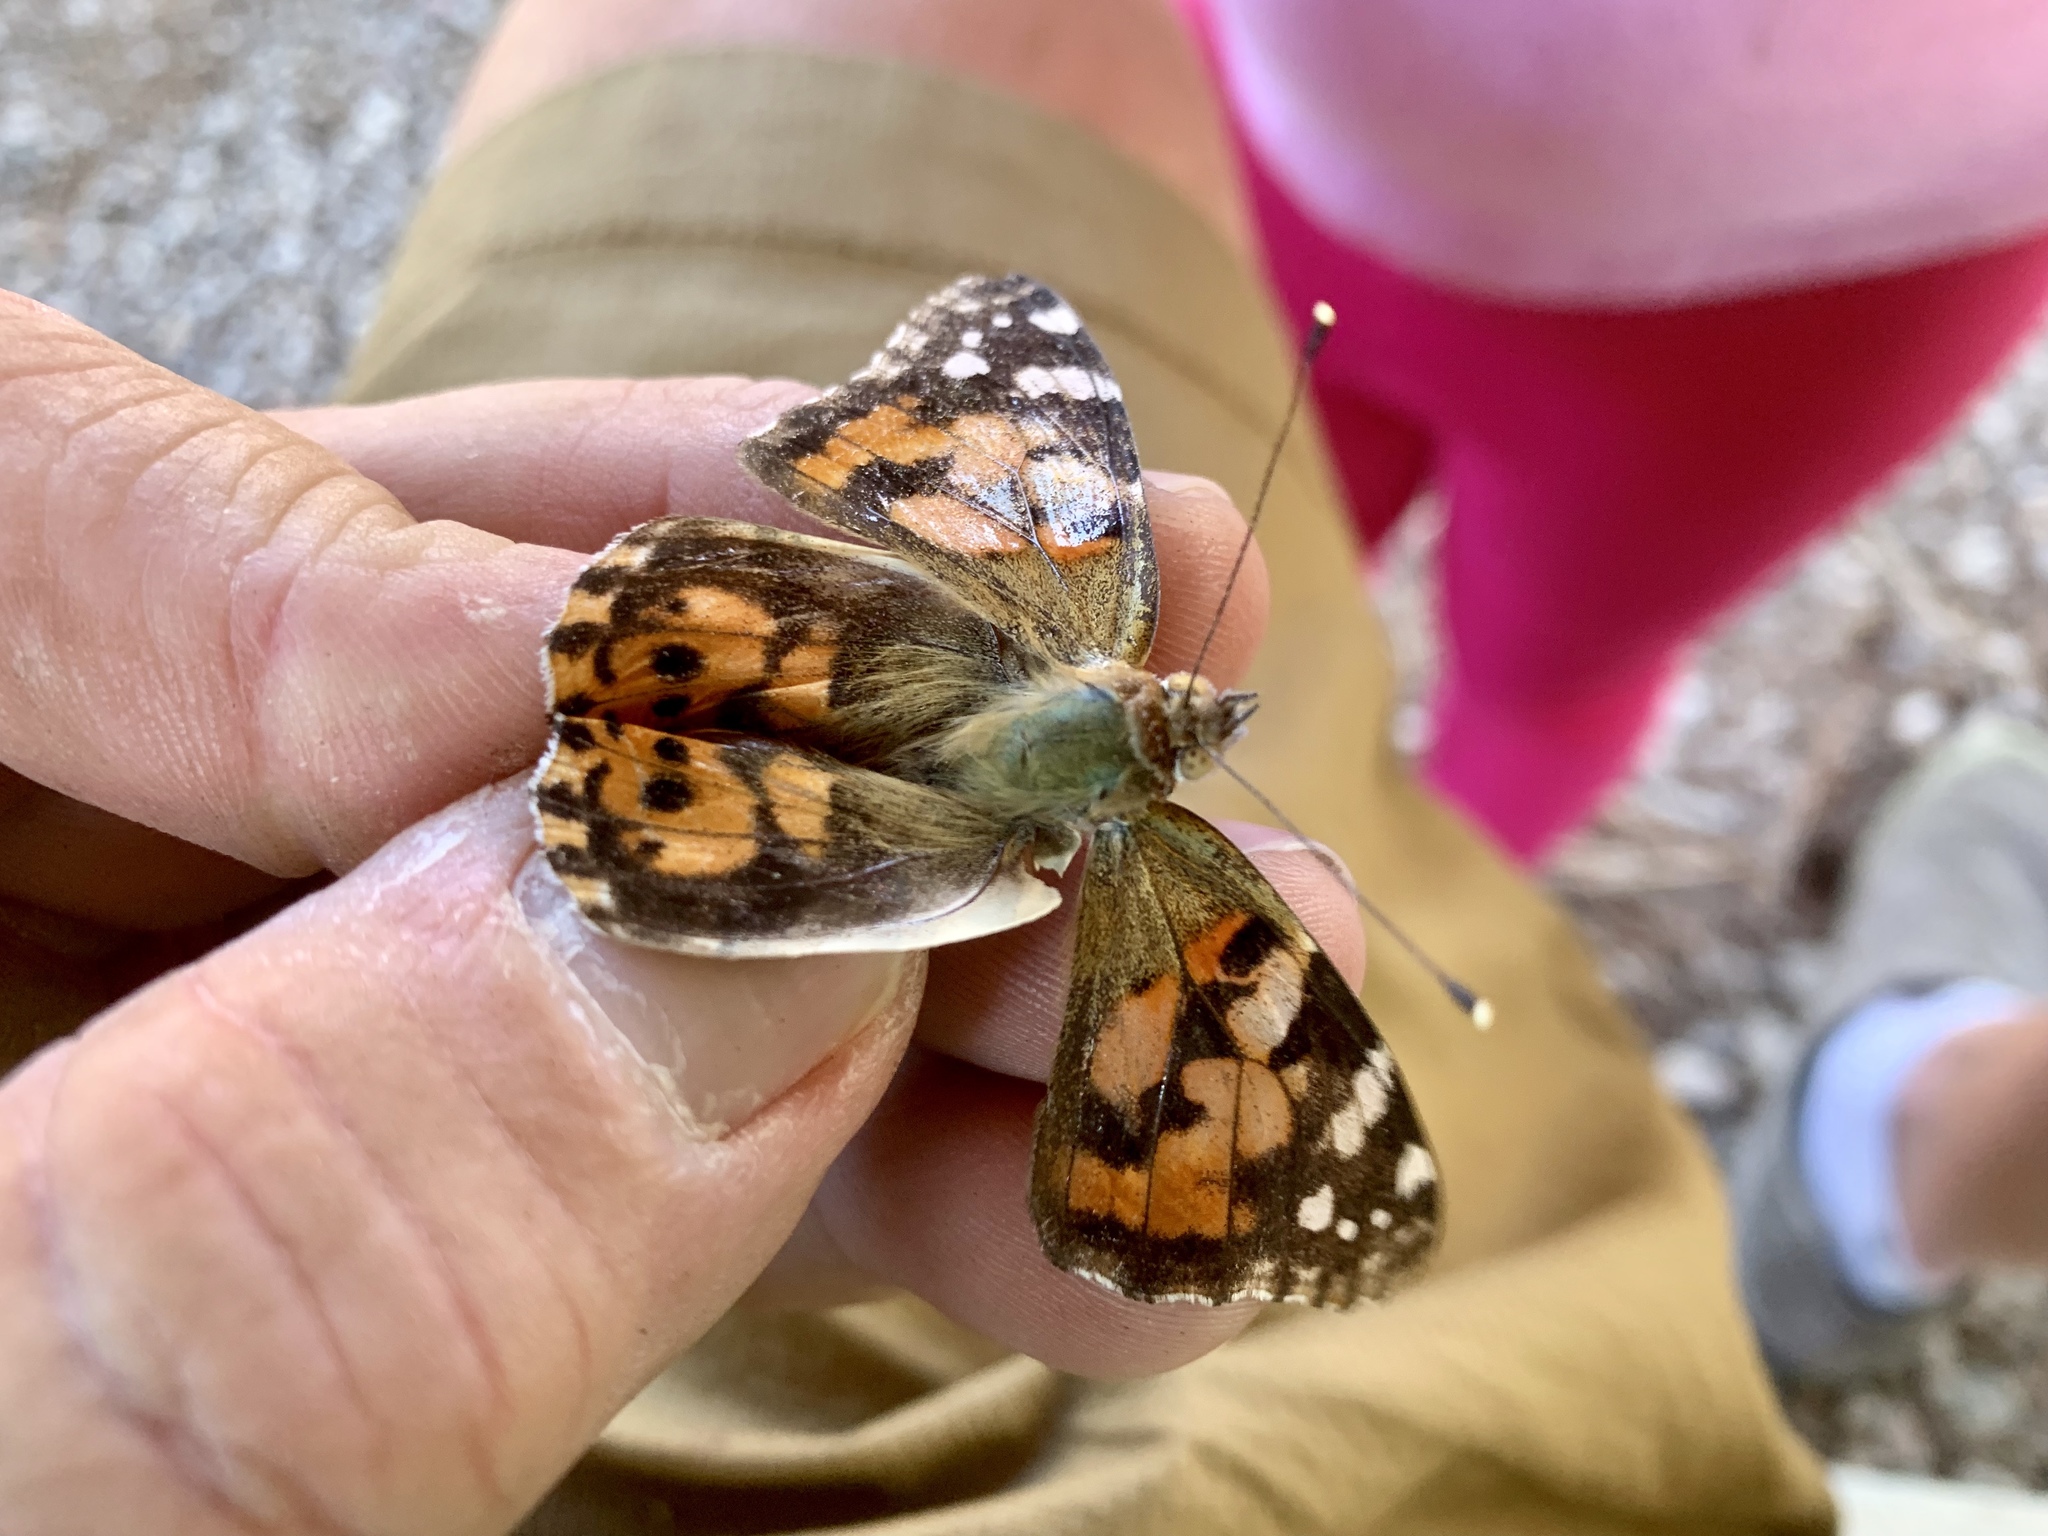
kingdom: Animalia
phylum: Arthropoda
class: Insecta
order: Lepidoptera
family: Nymphalidae
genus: Vanessa
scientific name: Vanessa cardui
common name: Painted lady
